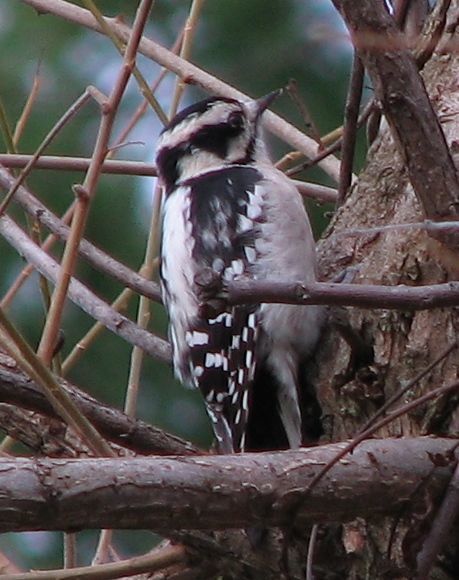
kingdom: Animalia
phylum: Chordata
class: Aves
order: Piciformes
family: Picidae
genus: Dryobates
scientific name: Dryobates pubescens
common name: Downy woodpecker
